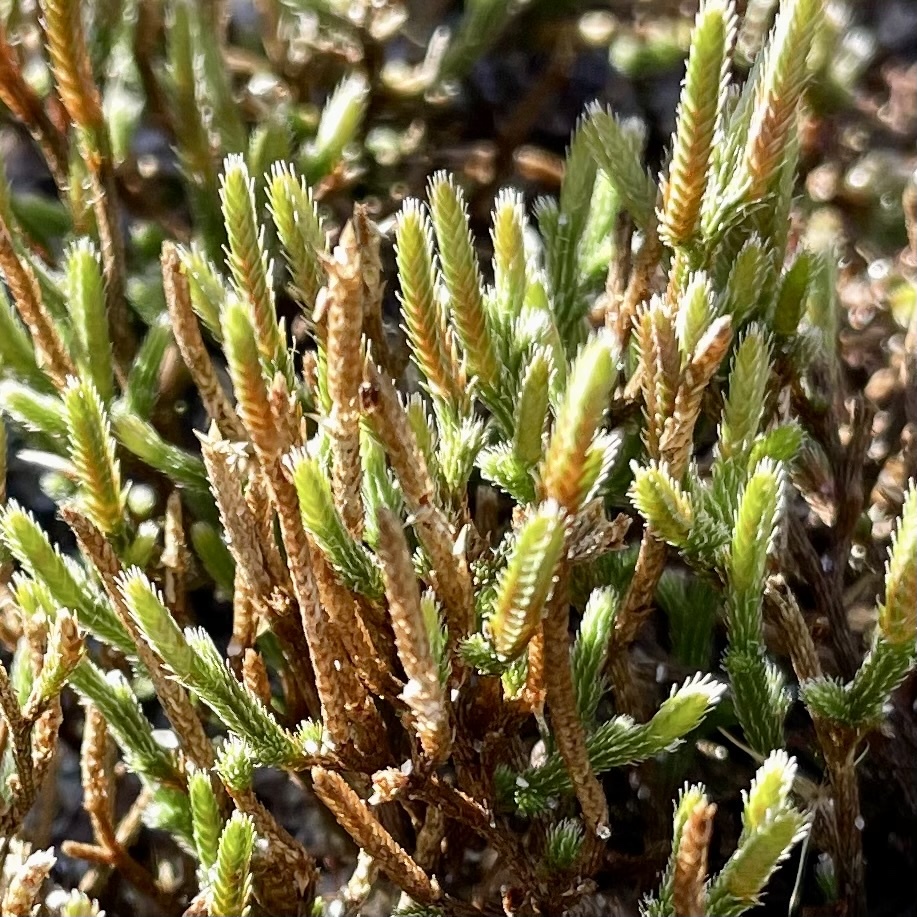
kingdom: Plantae
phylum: Tracheophyta
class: Lycopodiopsida
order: Selaginellales
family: Selaginellaceae
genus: Selaginella
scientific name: Selaginella arenicola
